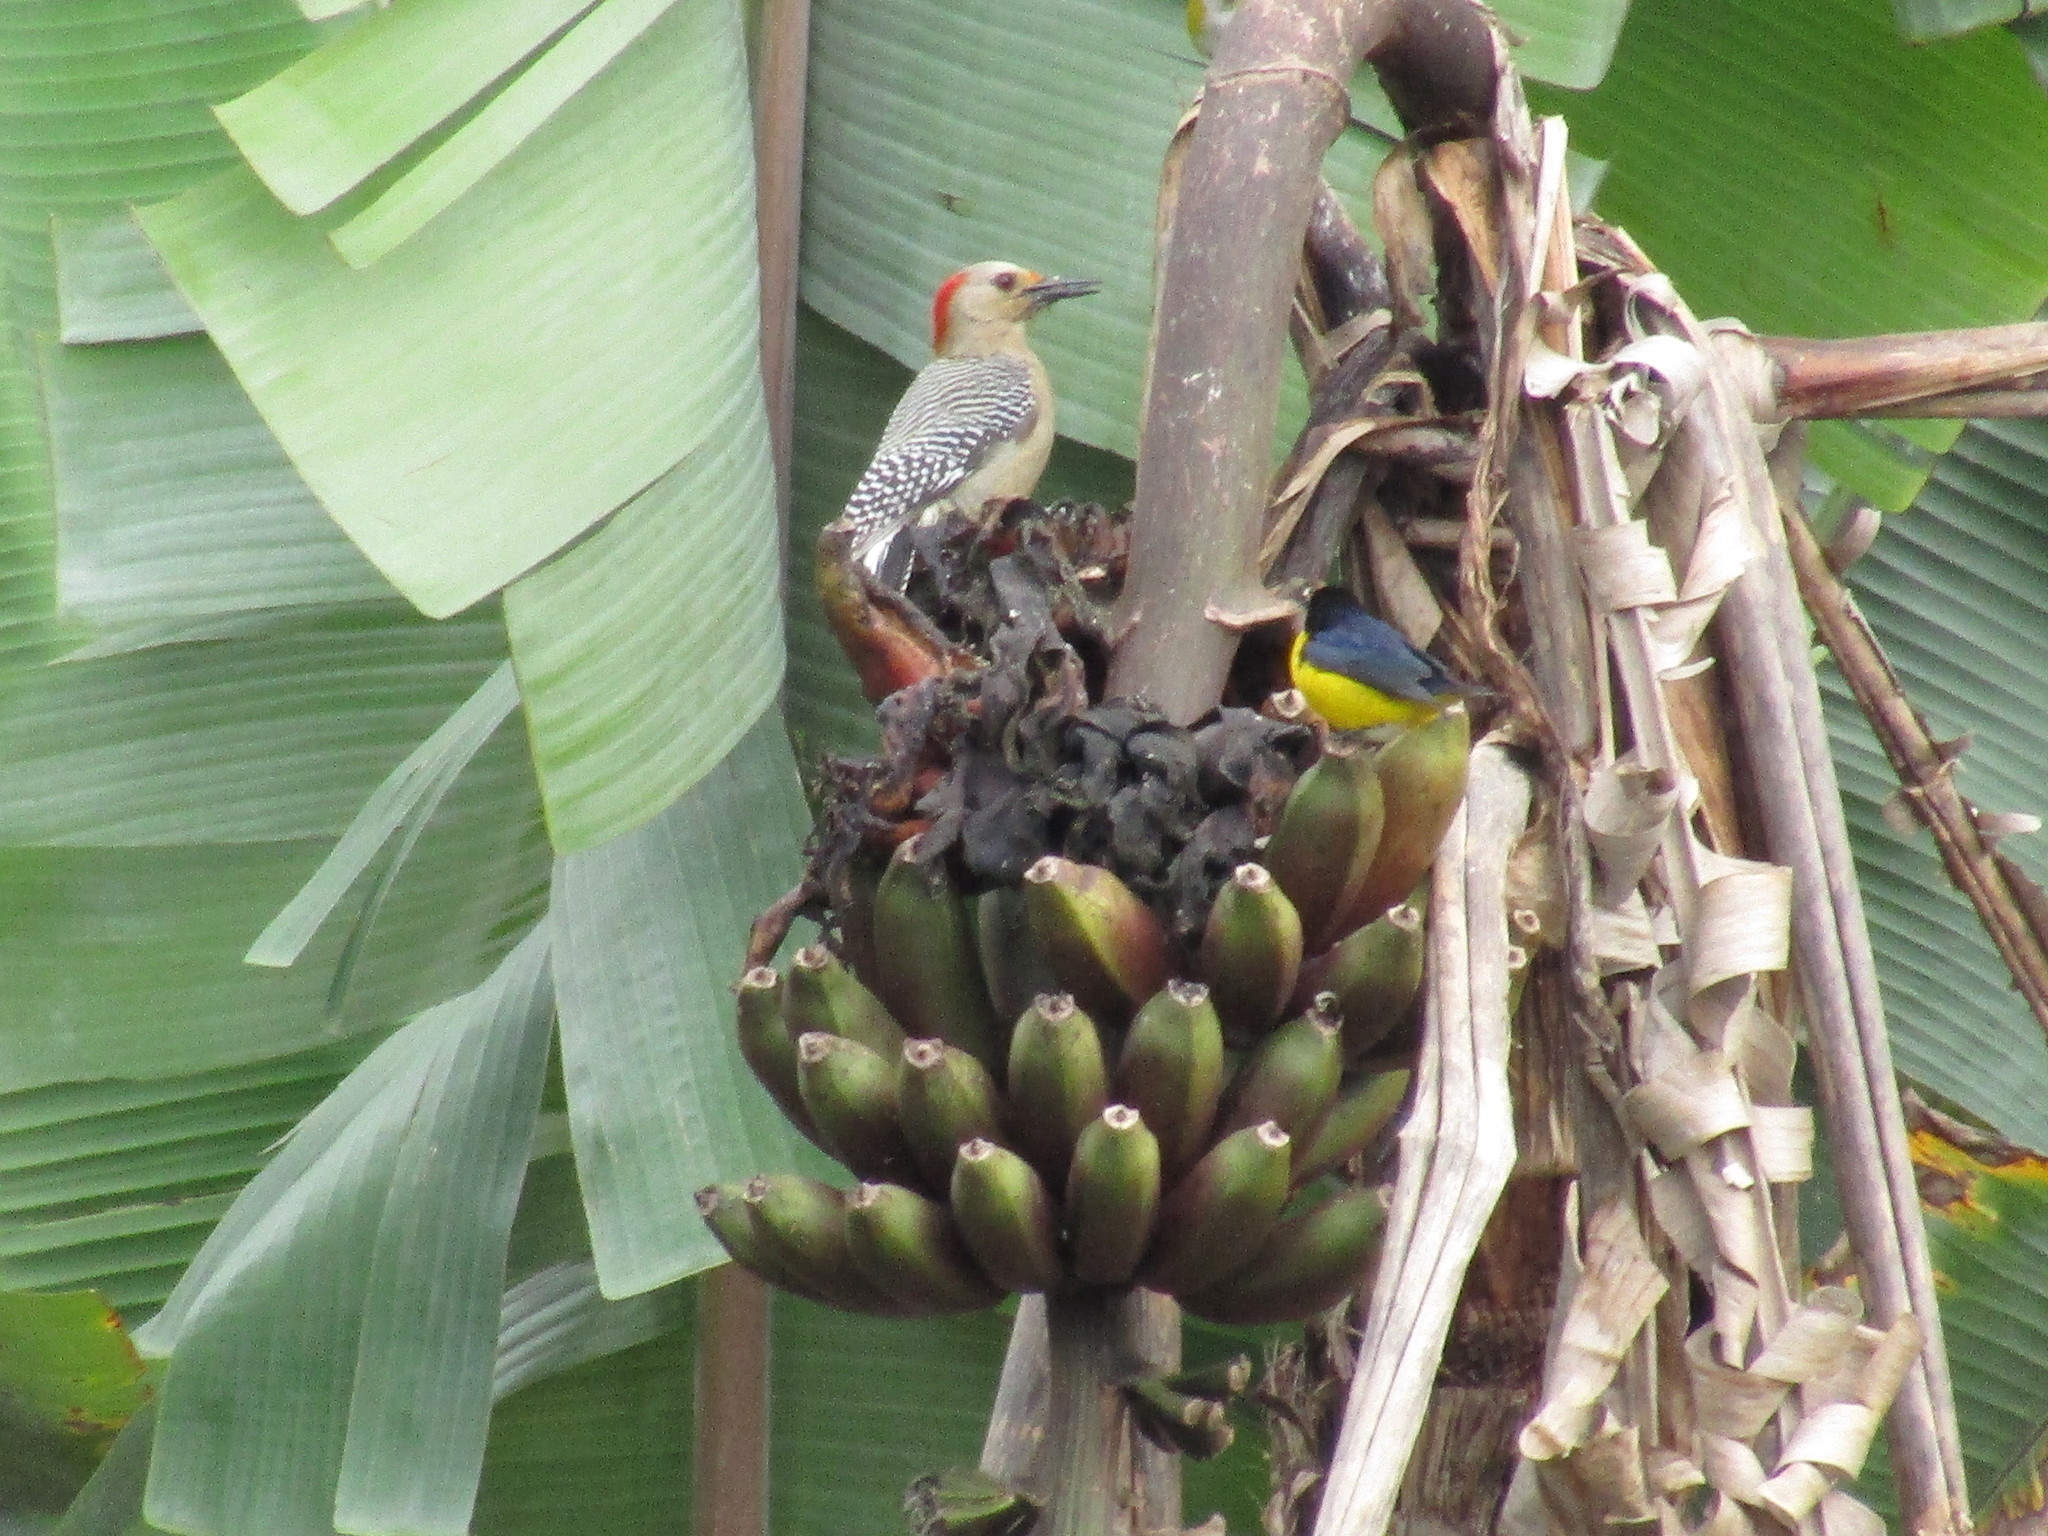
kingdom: Animalia
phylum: Chordata
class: Aves
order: Piciformes
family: Picidae
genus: Melanerpes
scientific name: Melanerpes aurifrons
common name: Golden-fronted woodpecker
